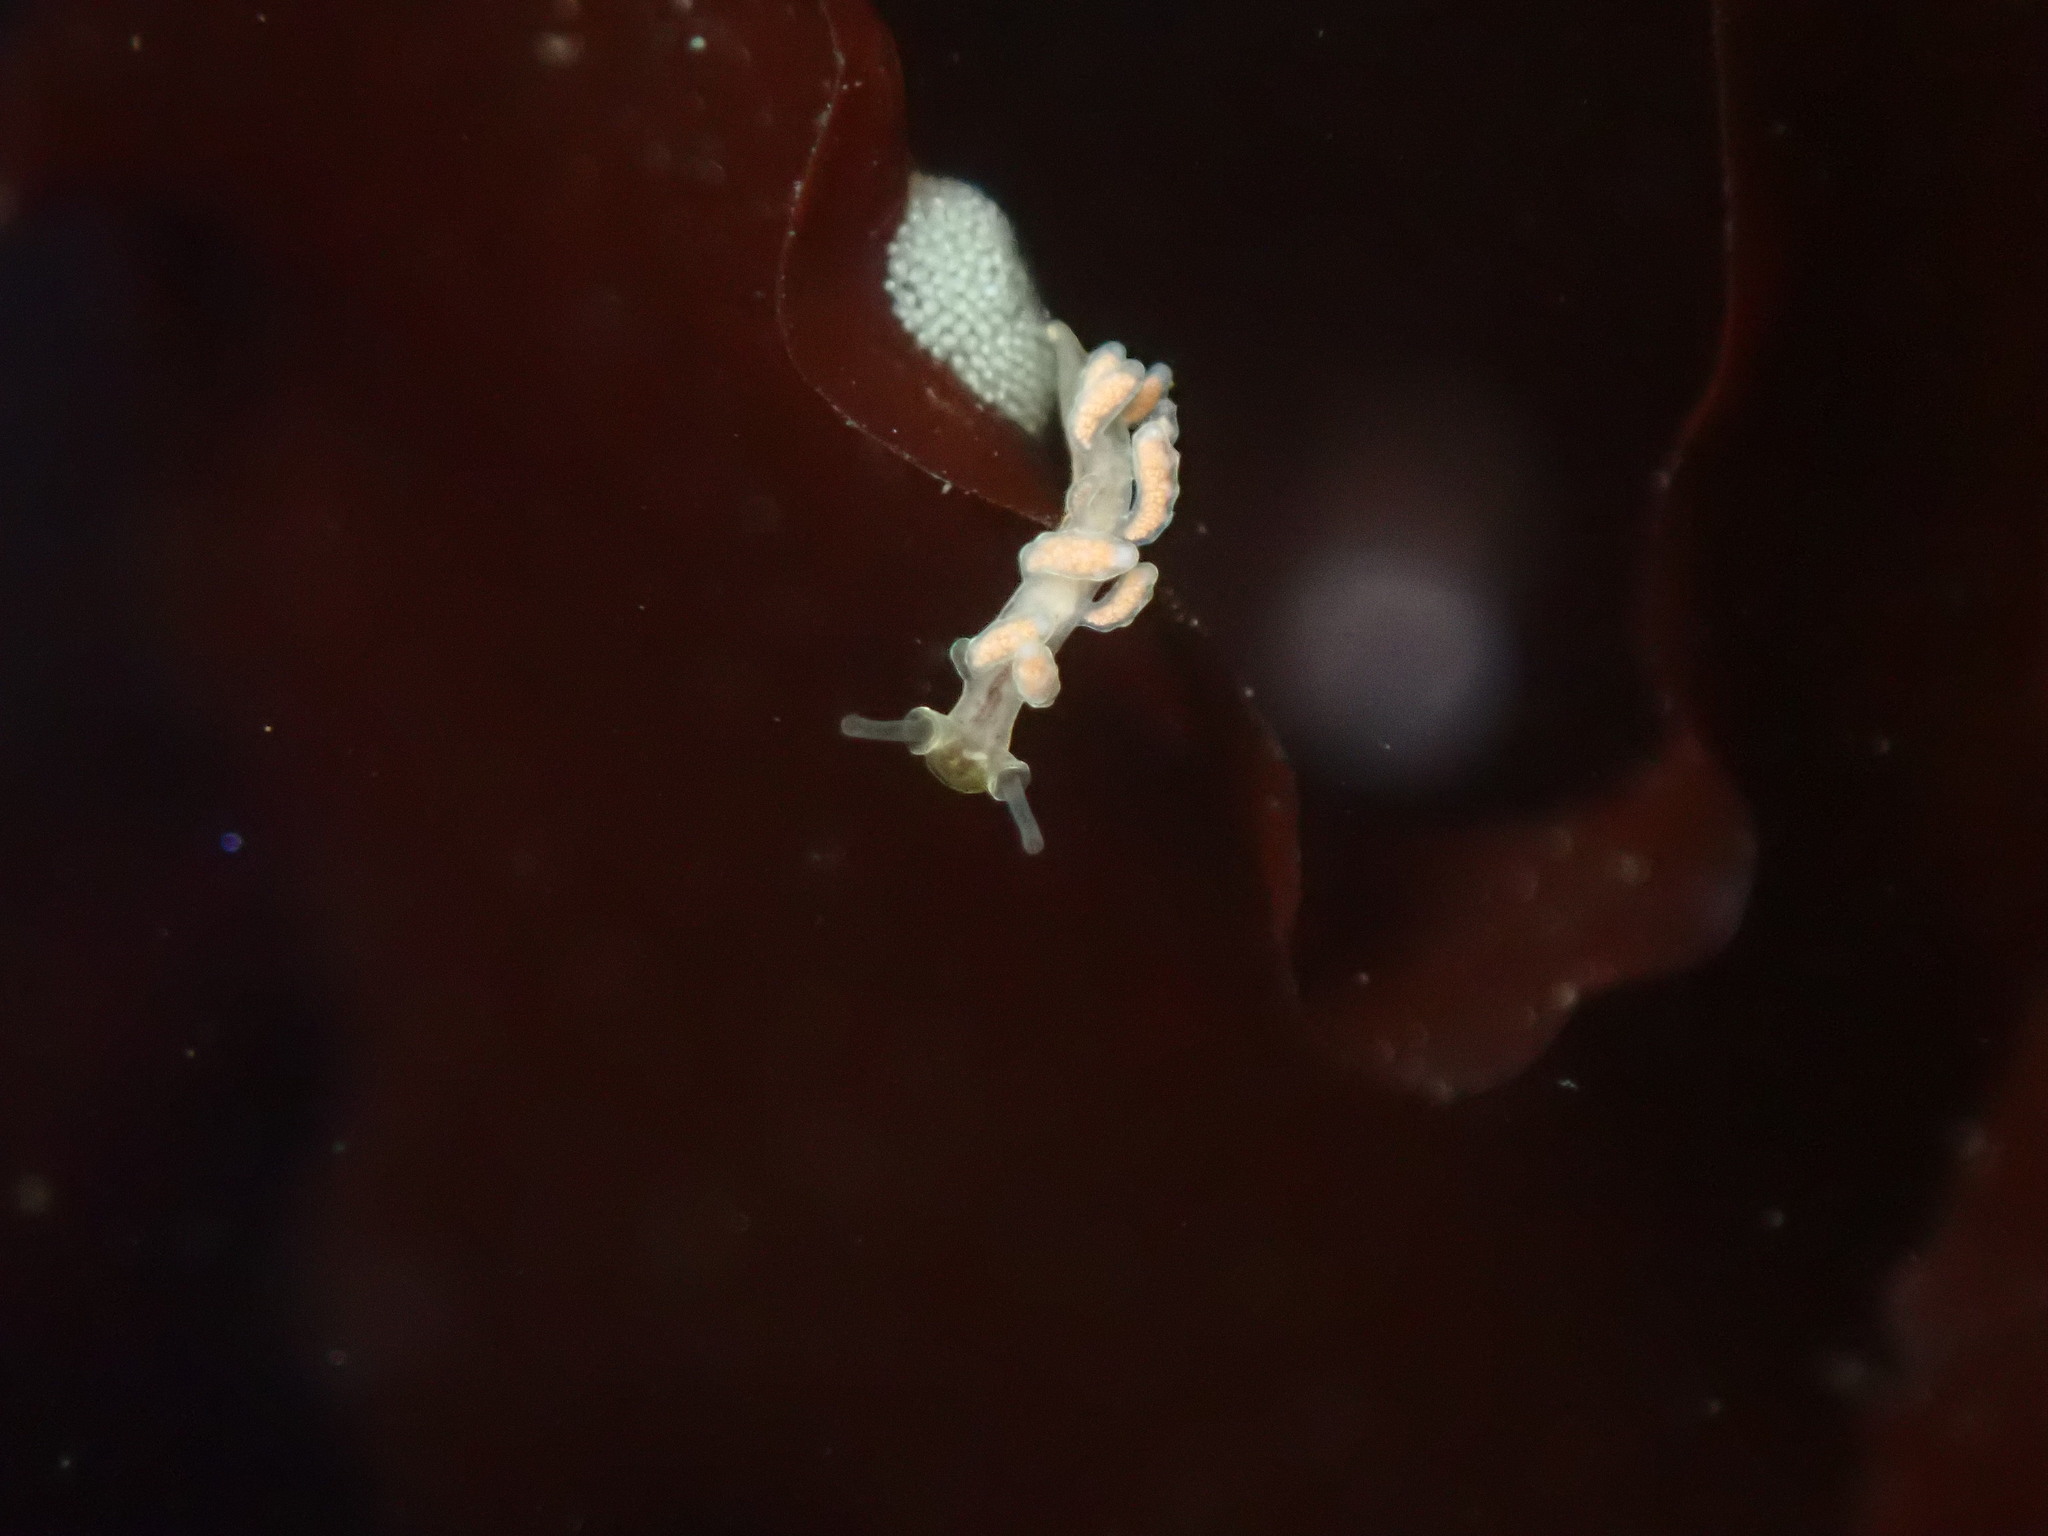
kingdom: Animalia
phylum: Mollusca
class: Gastropoda
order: Nudibranchia
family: Dotidae
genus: Doto
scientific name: Doto columbiana
